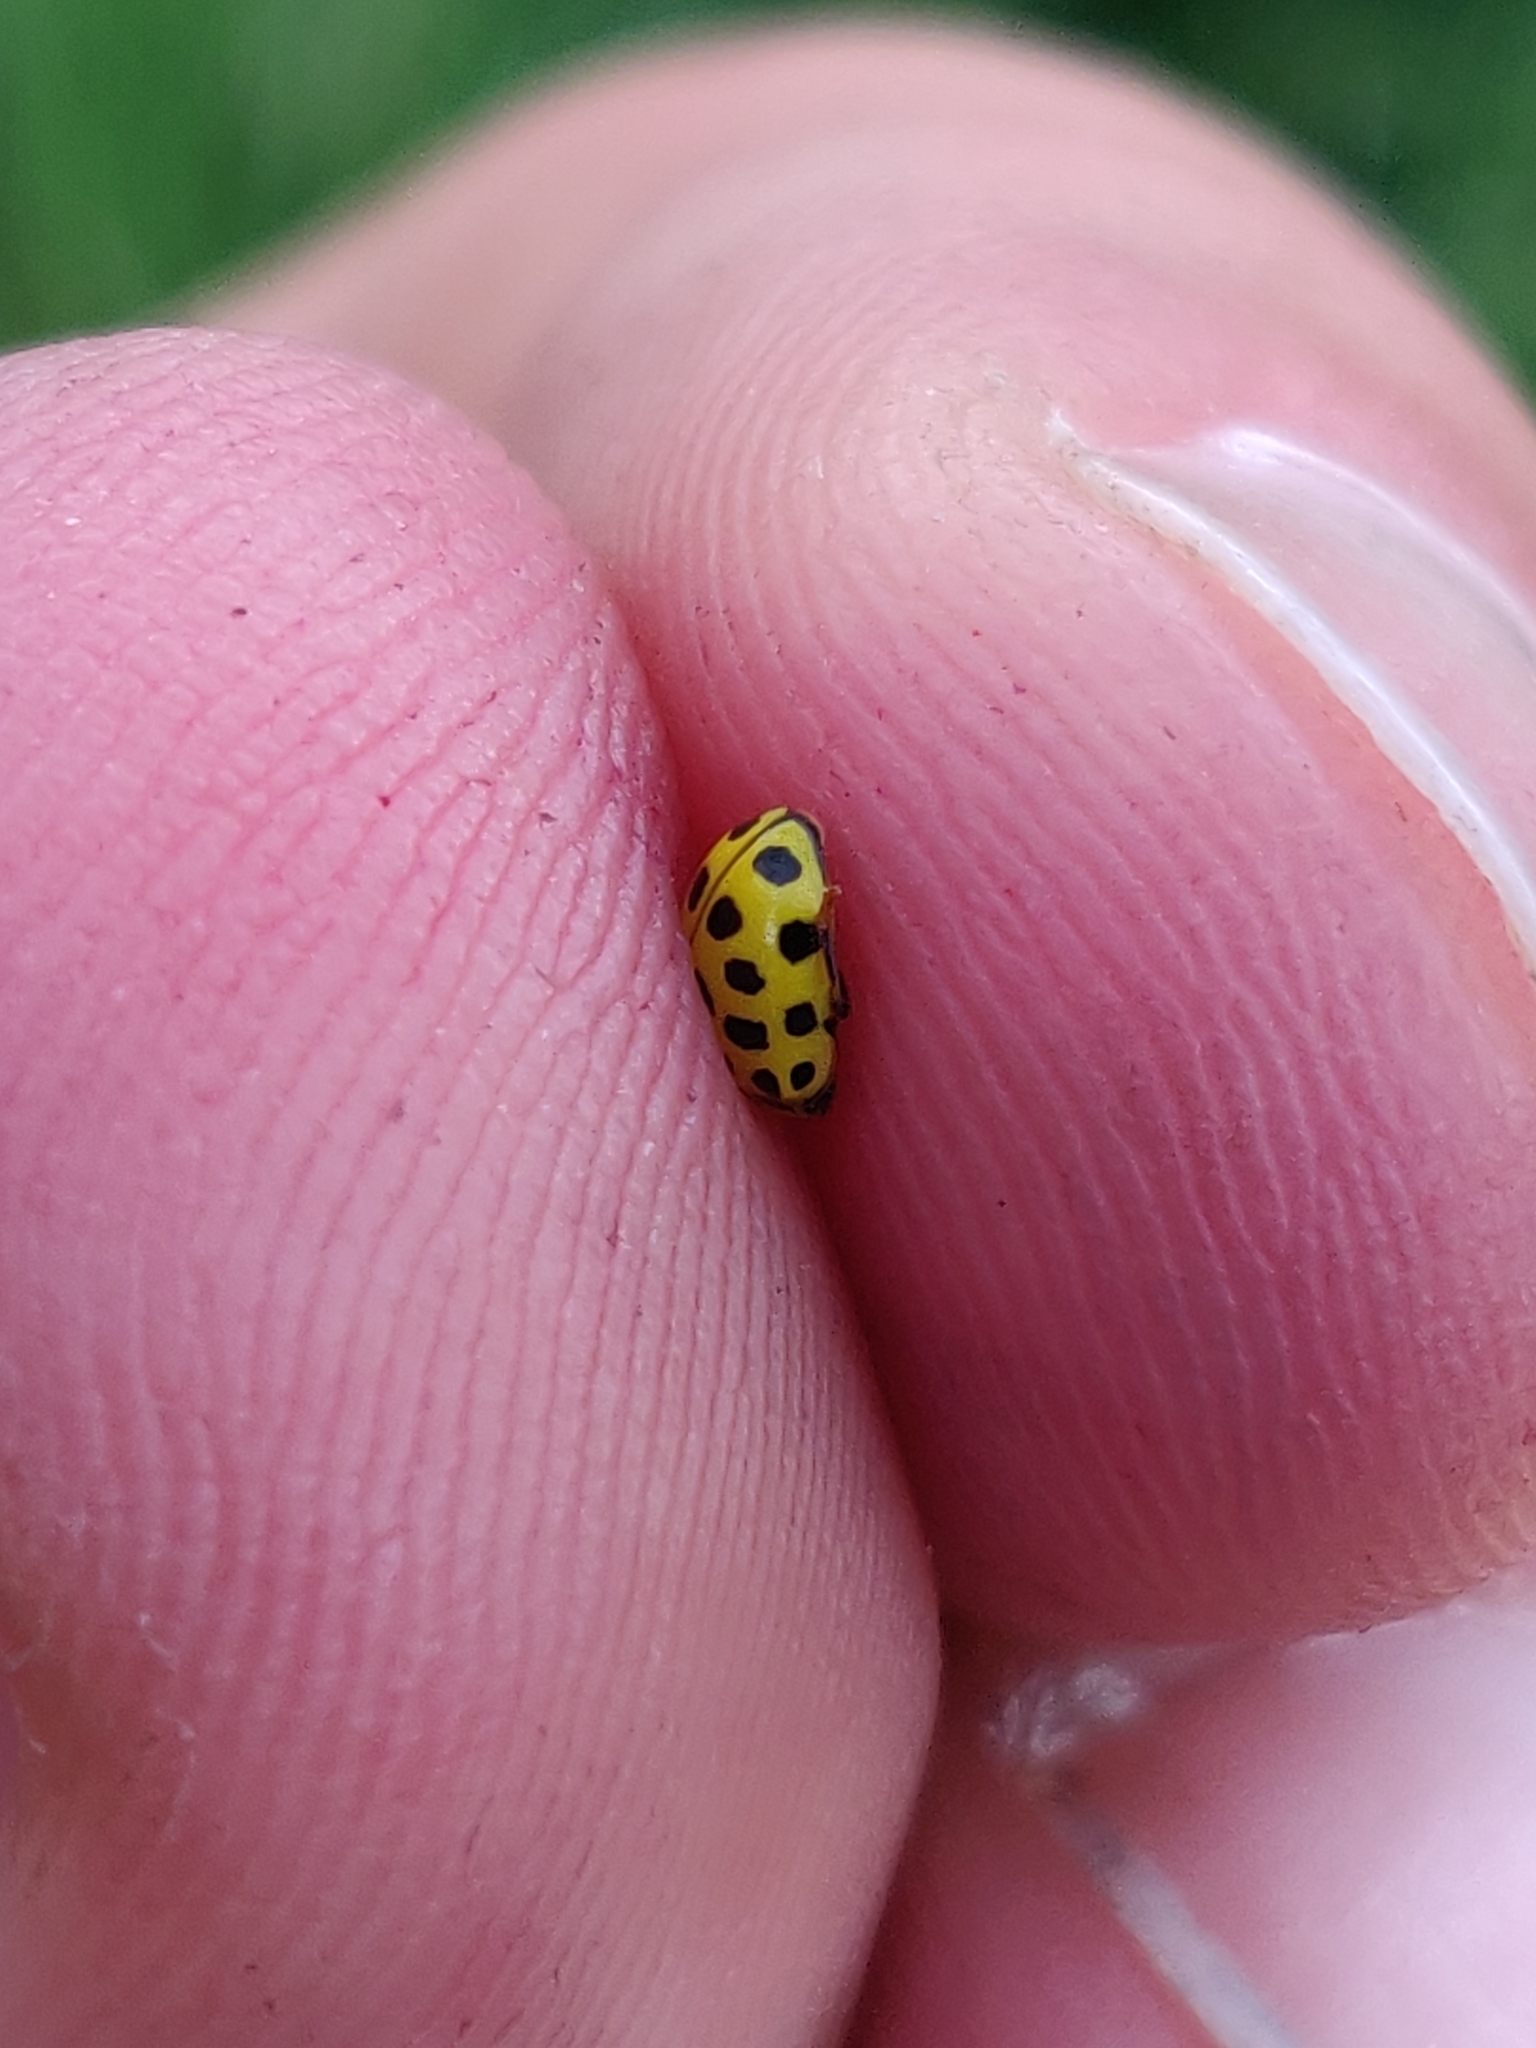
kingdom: Animalia
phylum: Arthropoda
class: Insecta
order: Coleoptera
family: Coccinellidae
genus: Psyllobora
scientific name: Psyllobora vigintiduopunctata
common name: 22-spot ladybird
